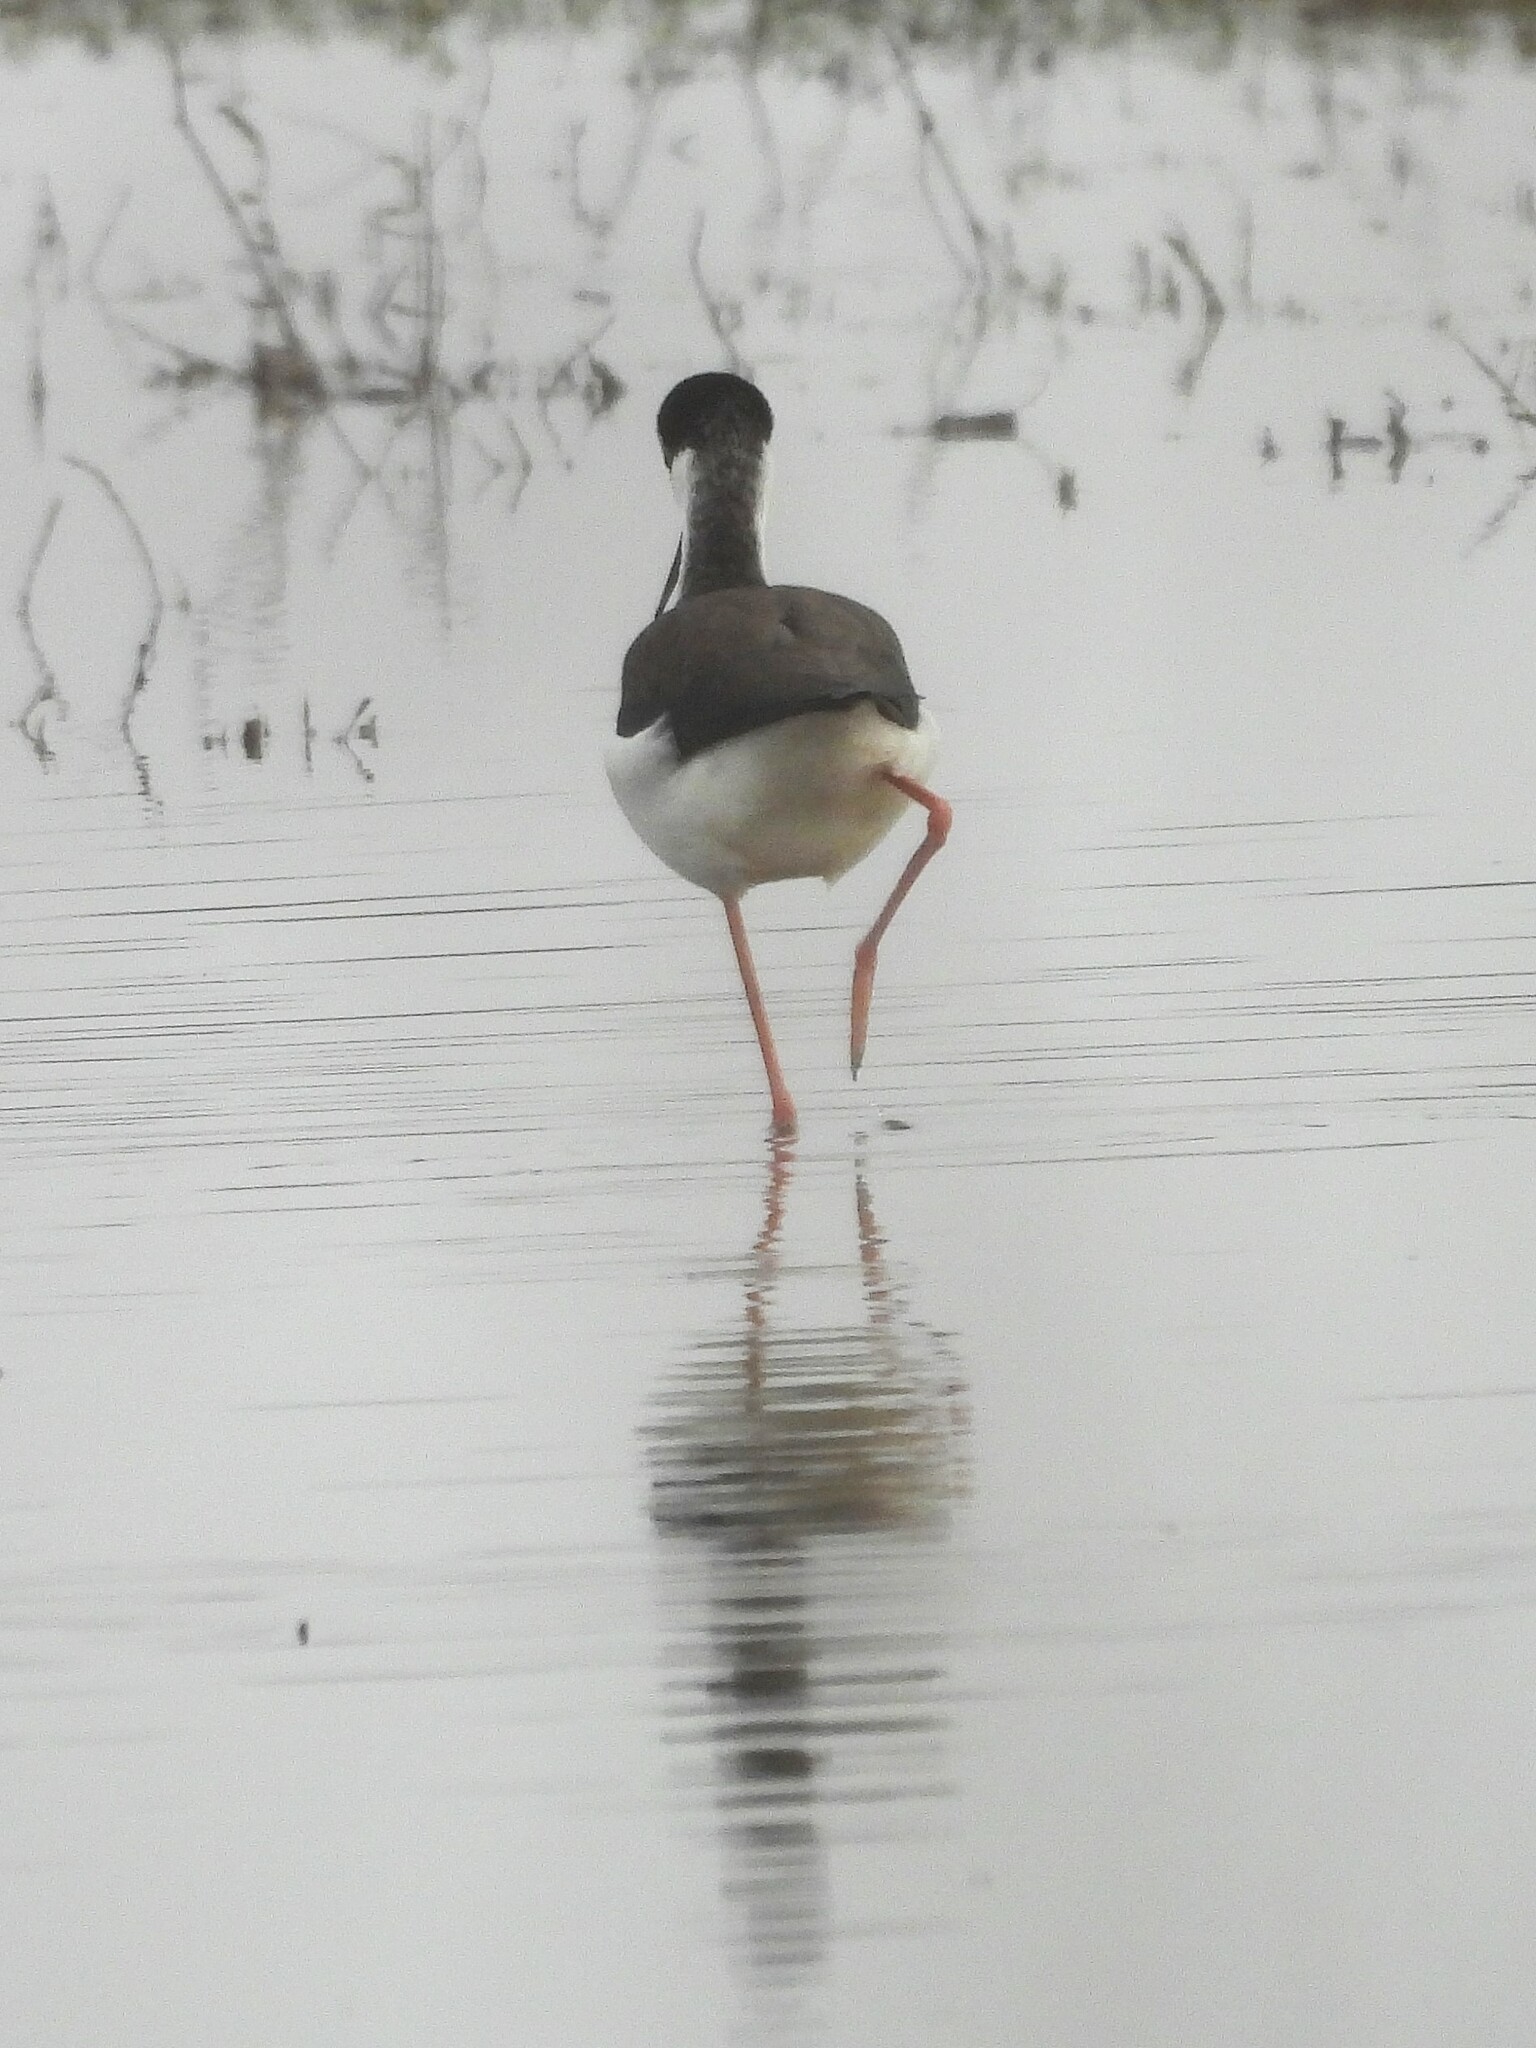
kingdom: Animalia
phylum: Chordata
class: Aves
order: Charadriiformes
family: Recurvirostridae
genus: Himantopus
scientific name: Himantopus mexicanus
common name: Black-necked stilt
